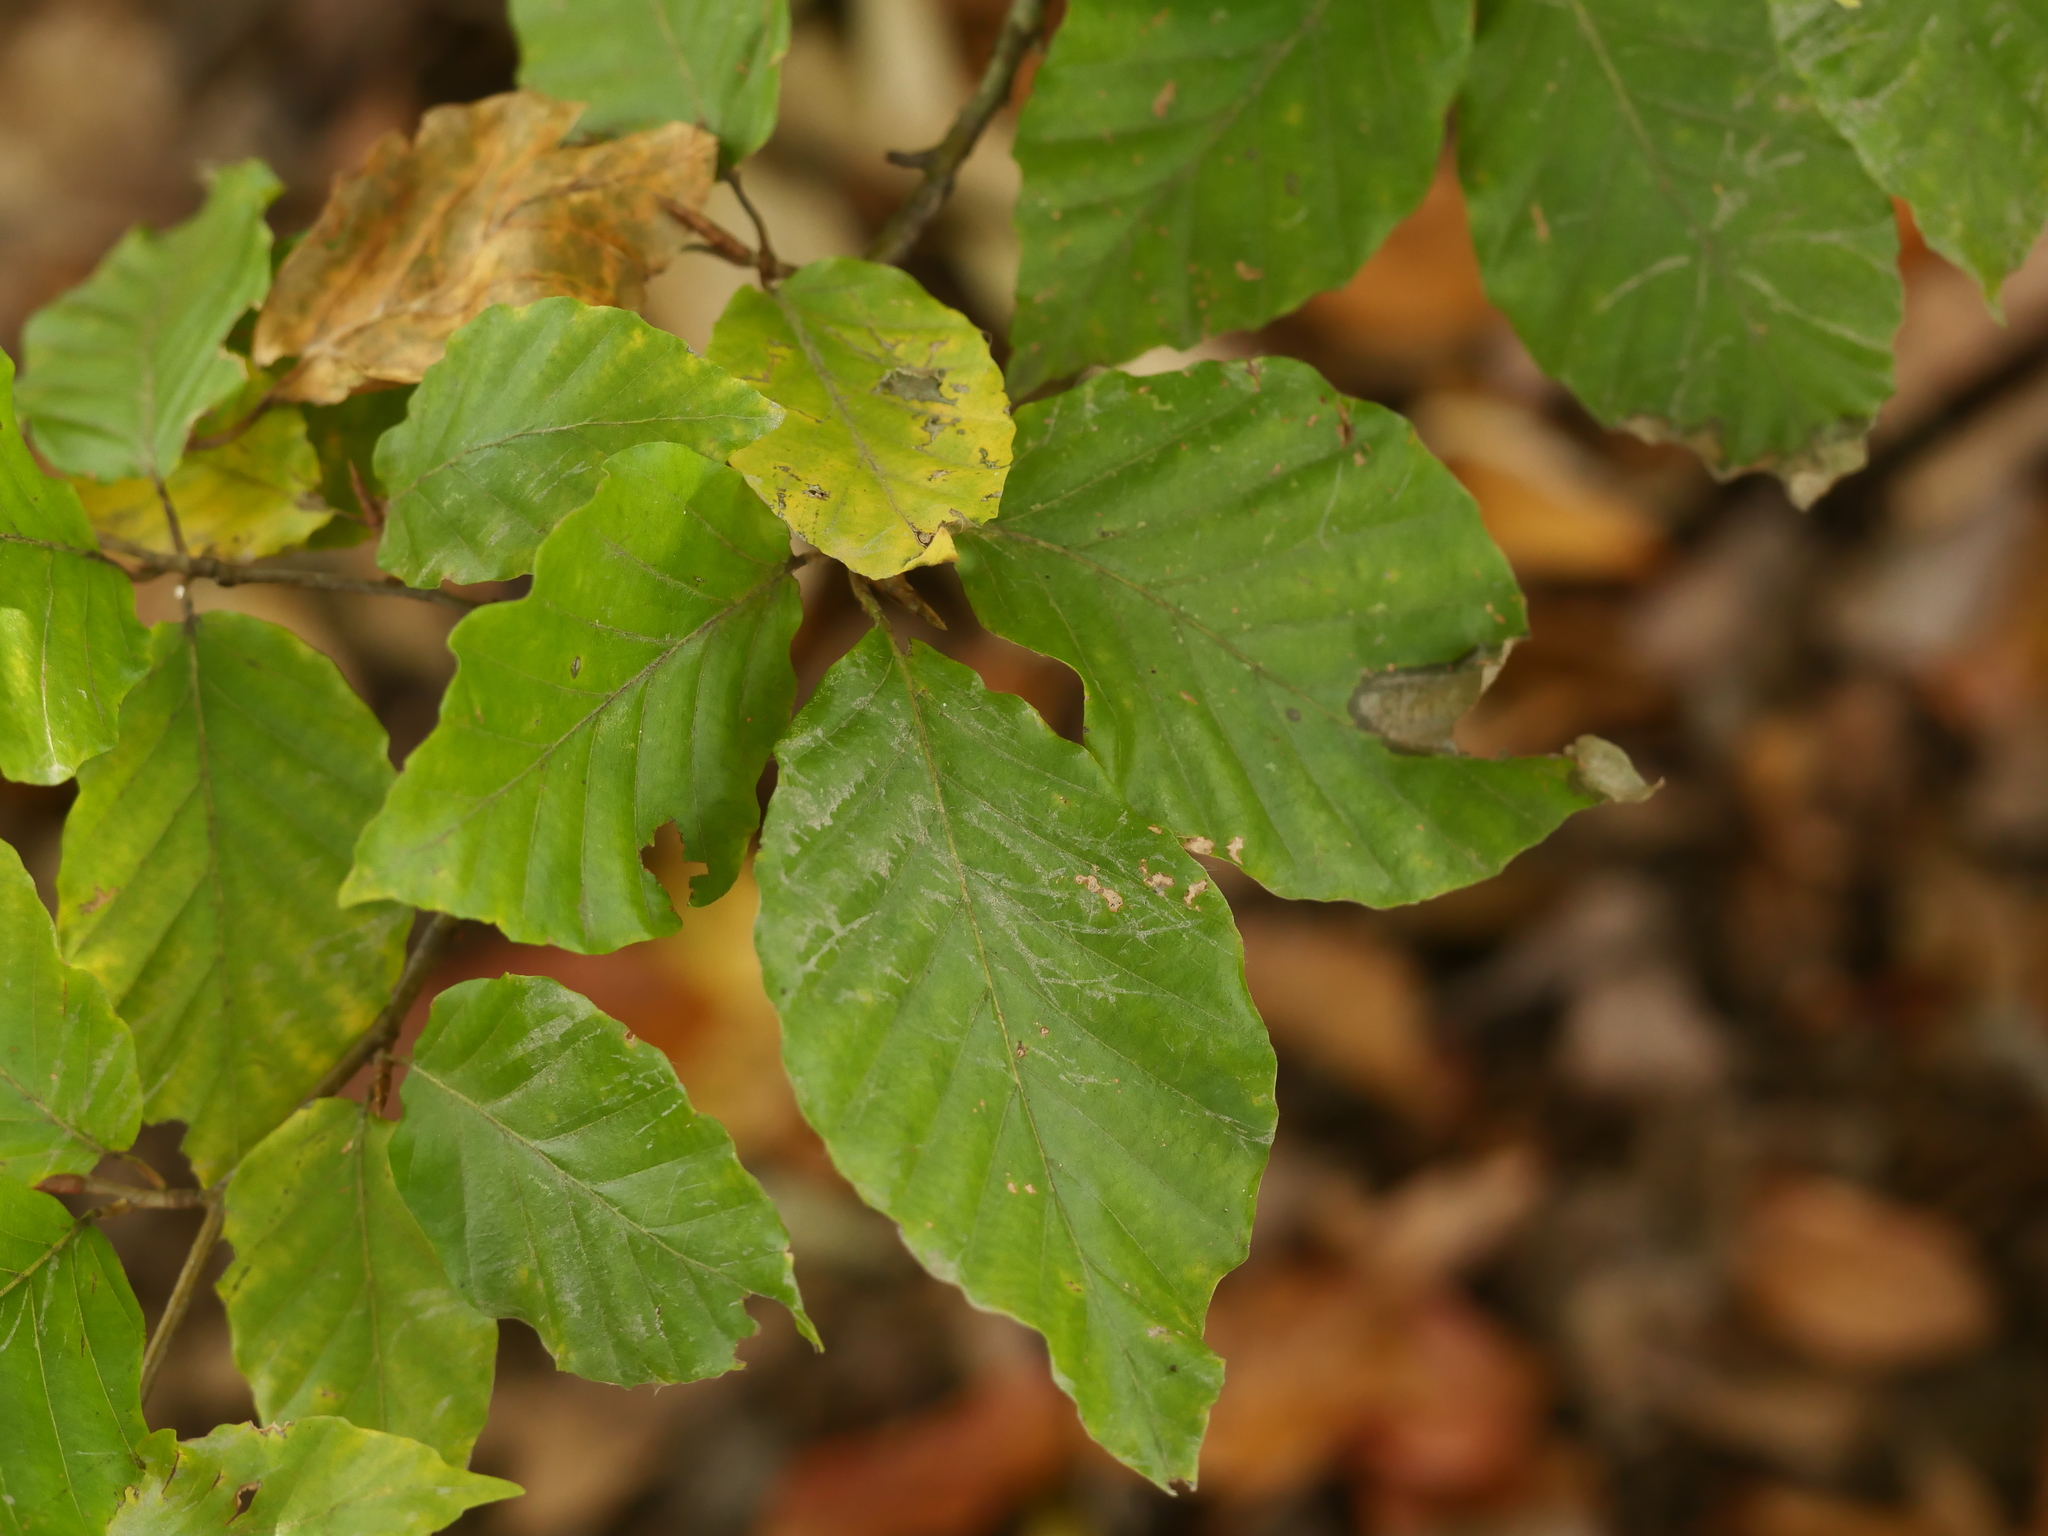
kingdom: Plantae
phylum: Tracheophyta
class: Magnoliopsida
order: Fagales
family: Fagaceae
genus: Fagus
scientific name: Fagus sylvatica
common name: Beech
